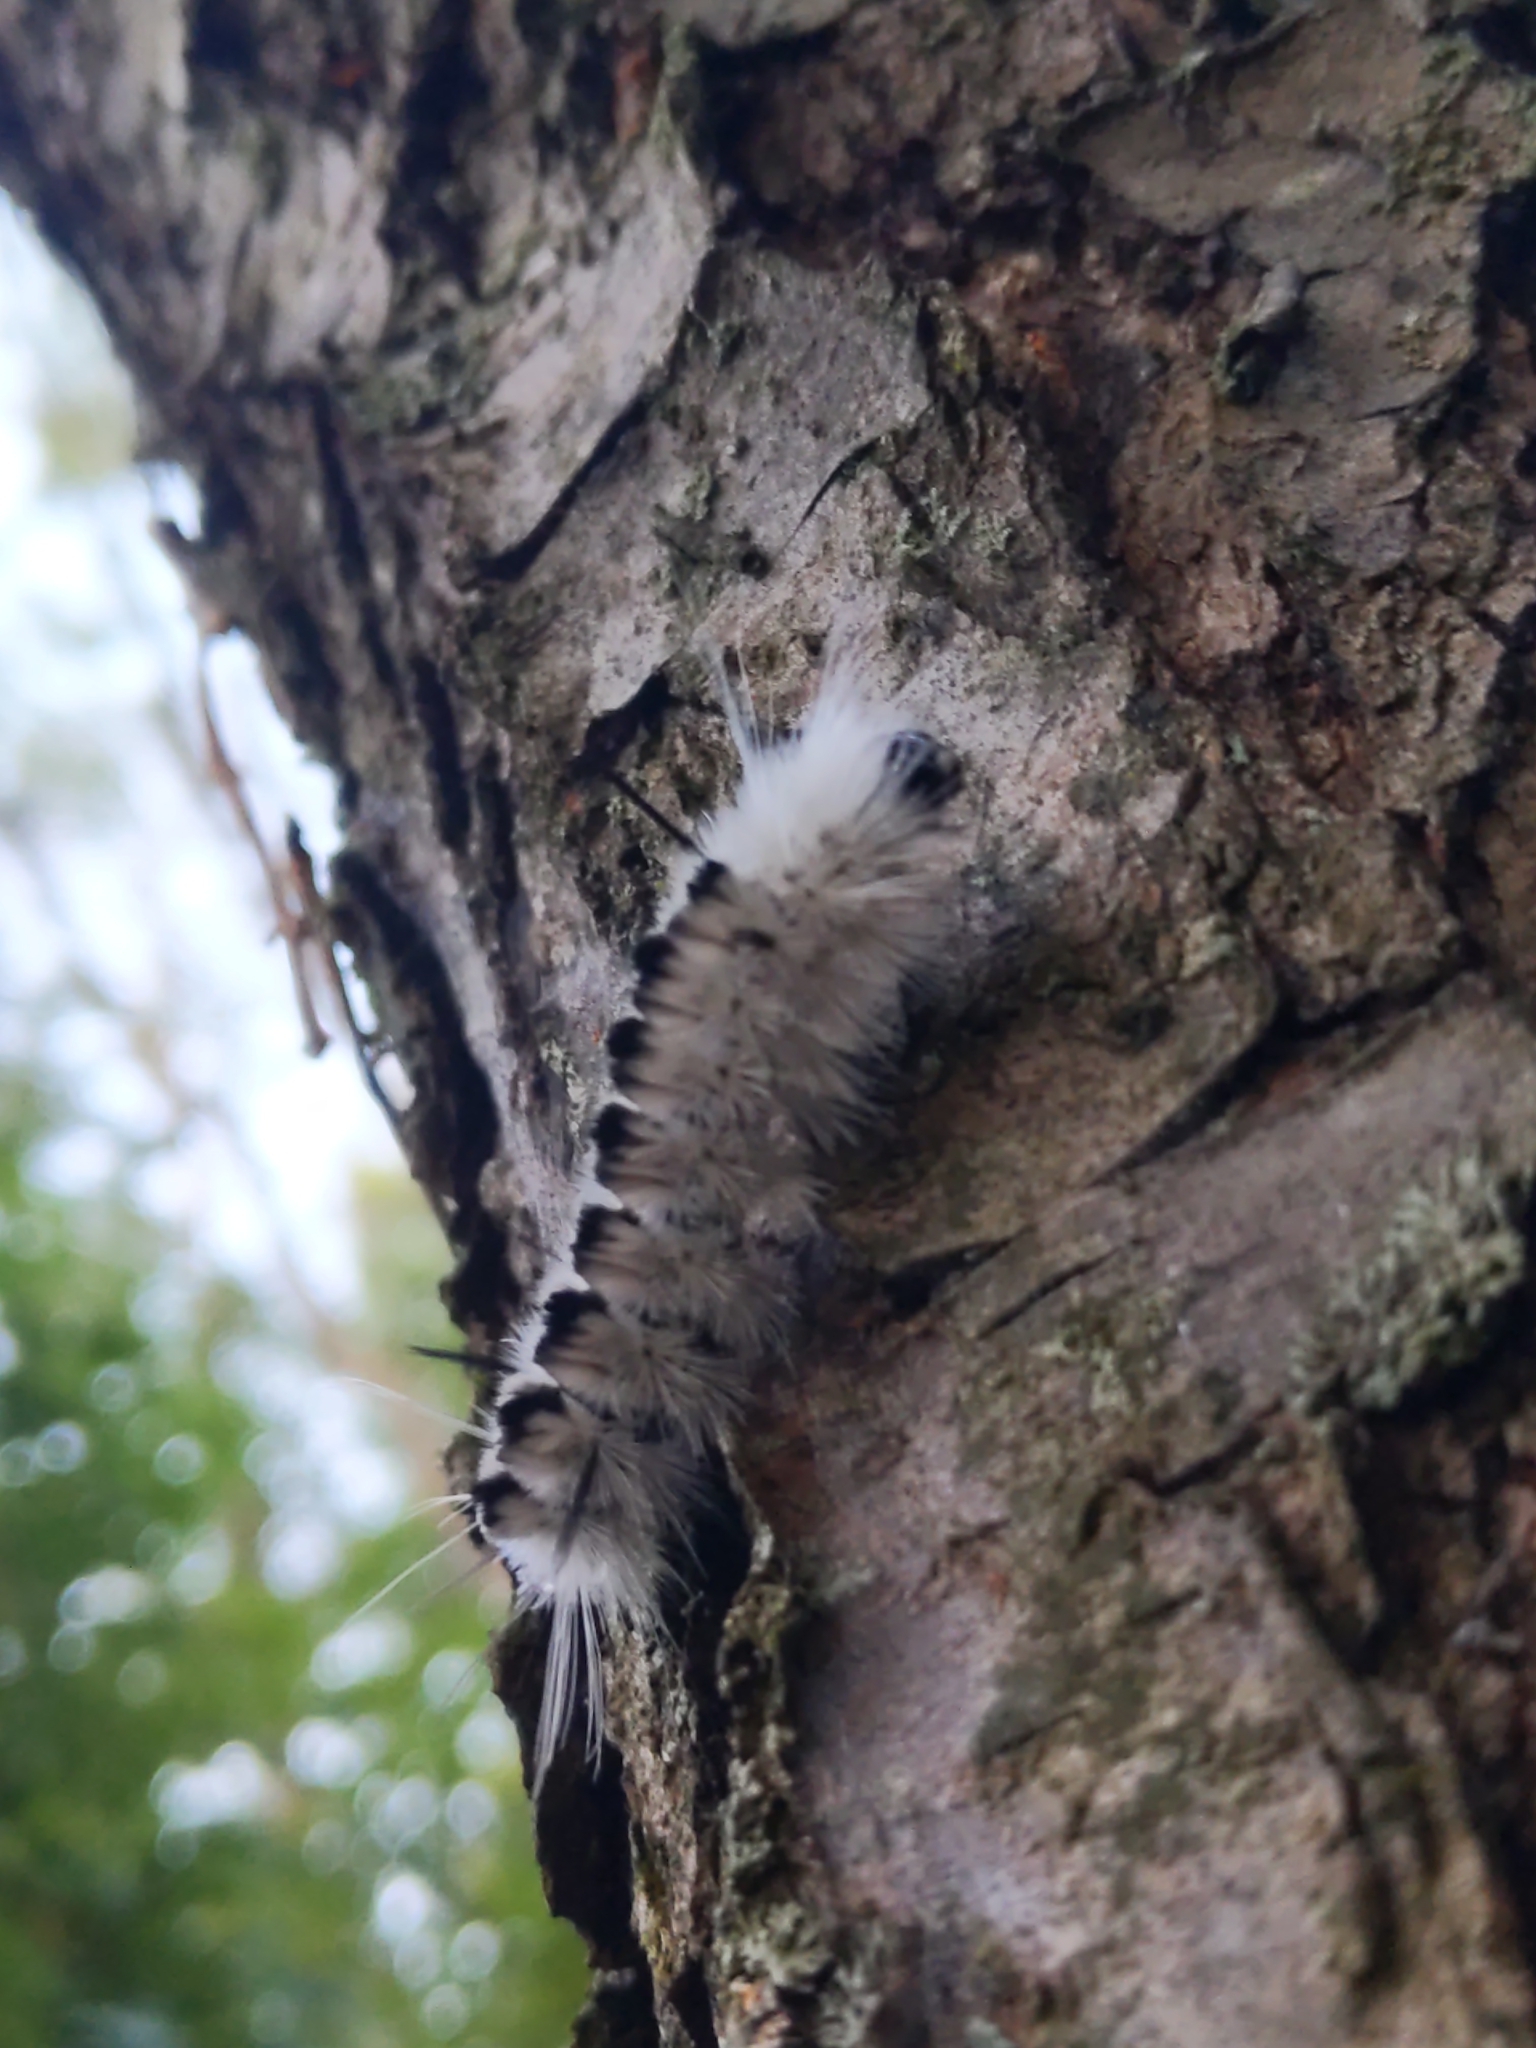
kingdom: Animalia
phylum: Arthropoda
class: Insecta
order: Lepidoptera
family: Erebidae
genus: Lophocampa
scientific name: Lophocampa caryae
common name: Hickory tussock moth
